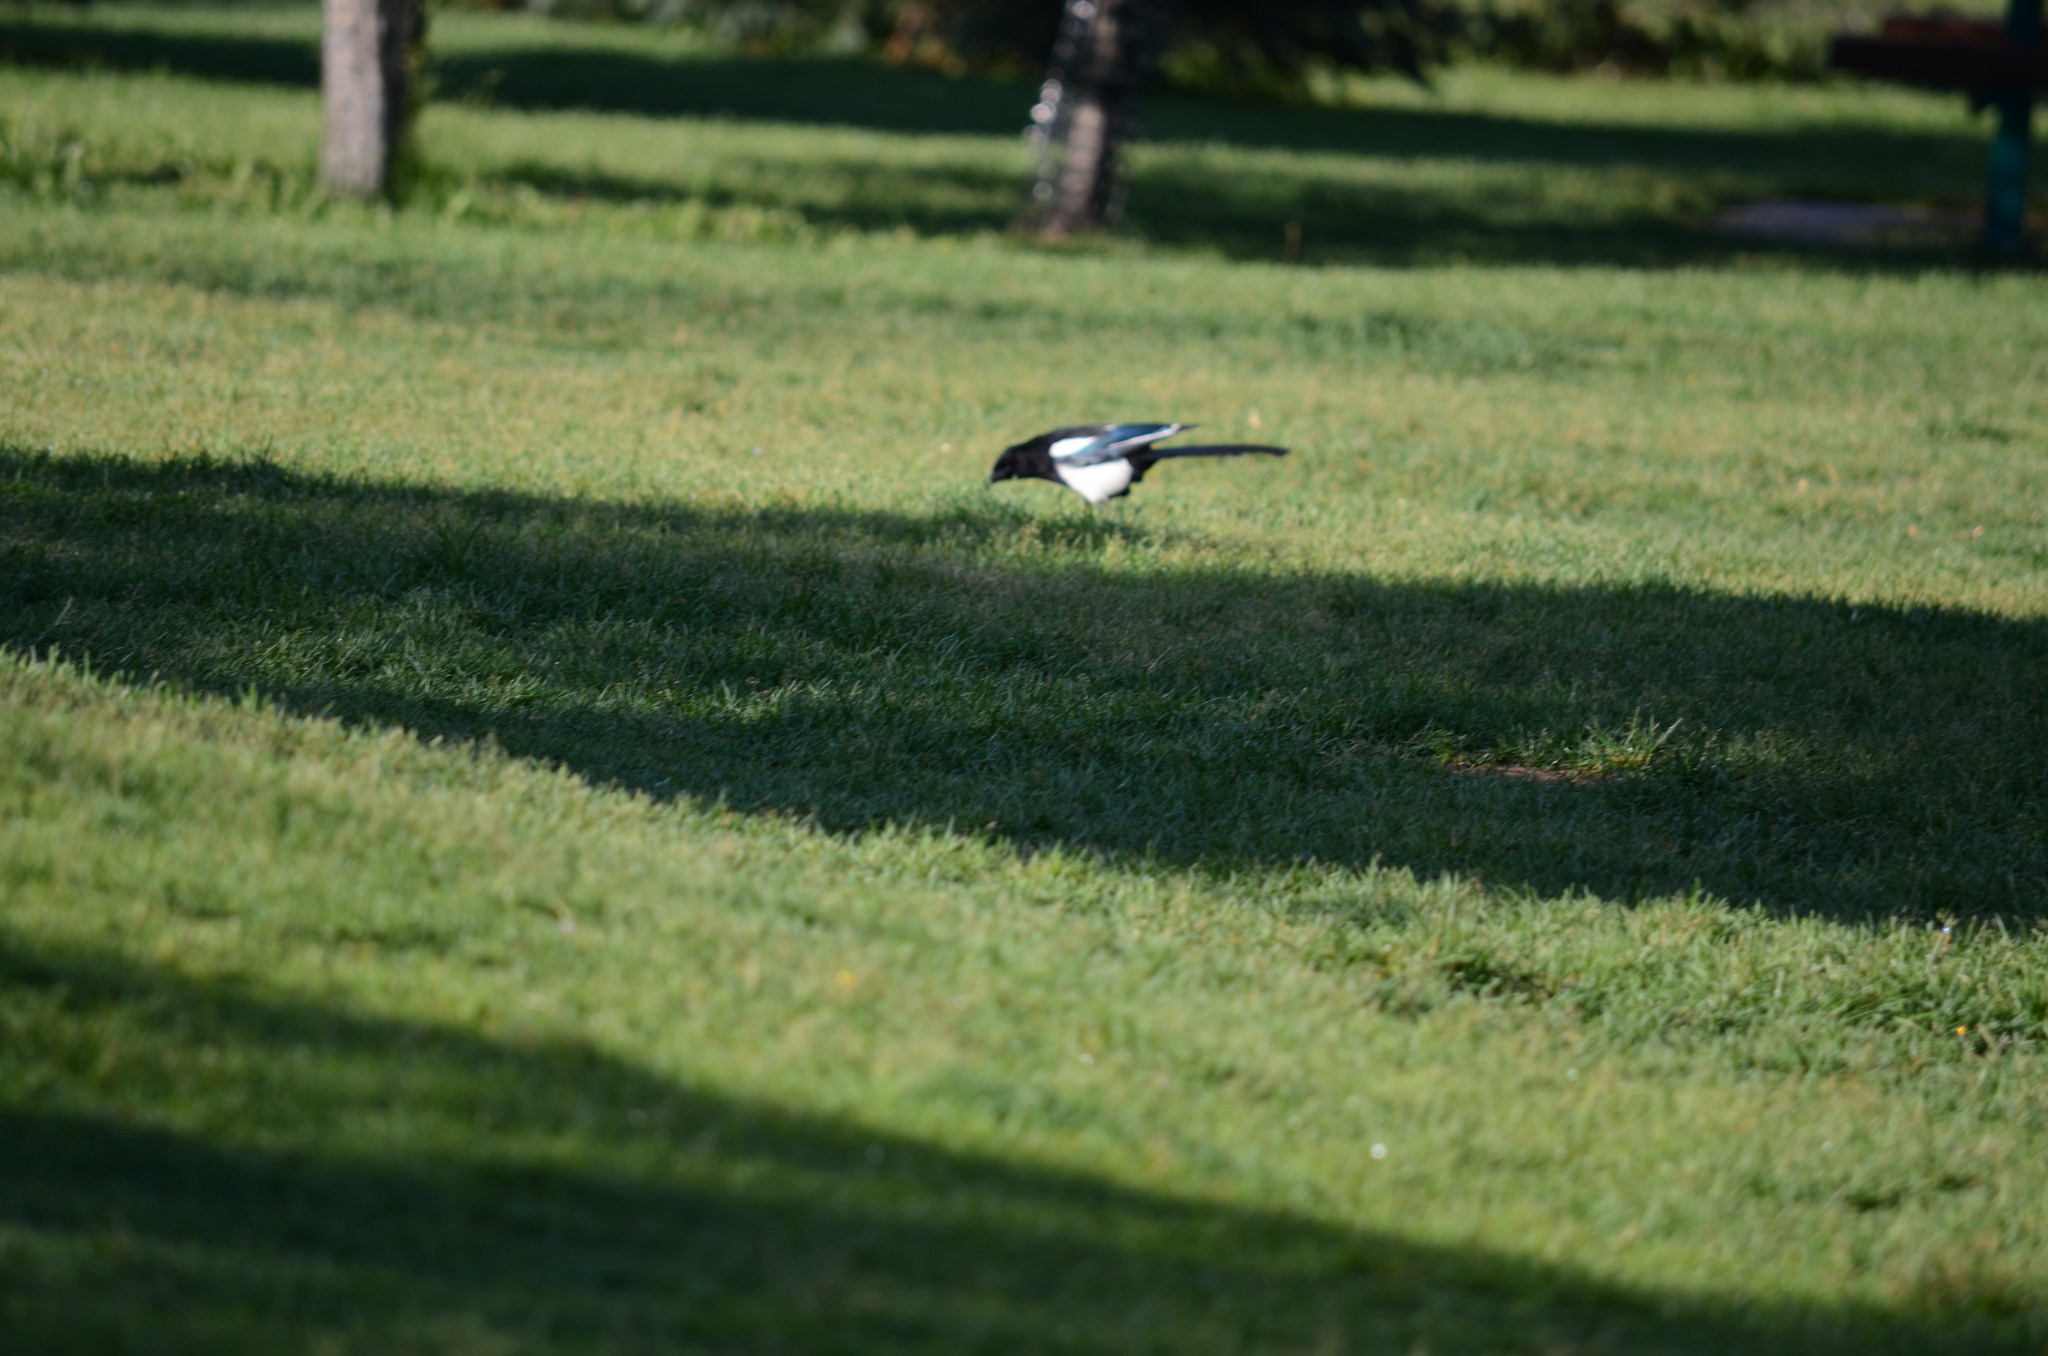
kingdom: Animalia
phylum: Chordata
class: Aves
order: Passeriformes
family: Corvidae
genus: Pica
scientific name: Pica hudsonia
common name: Black-billed magpie
